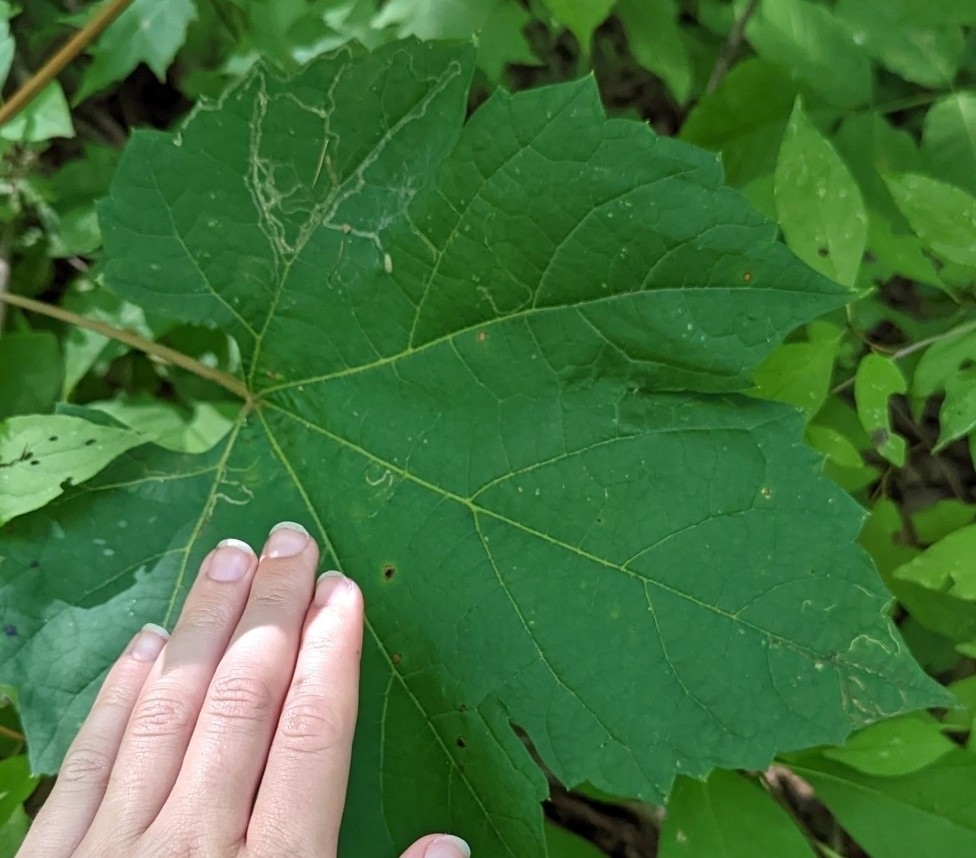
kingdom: Animalia
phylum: Arthropoda
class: Insecta
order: Lepidoptera
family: Gracillariidae
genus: Phyllocnistis
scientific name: Phyllocnistis vitifoliella
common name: Grape leaf-miner moth
